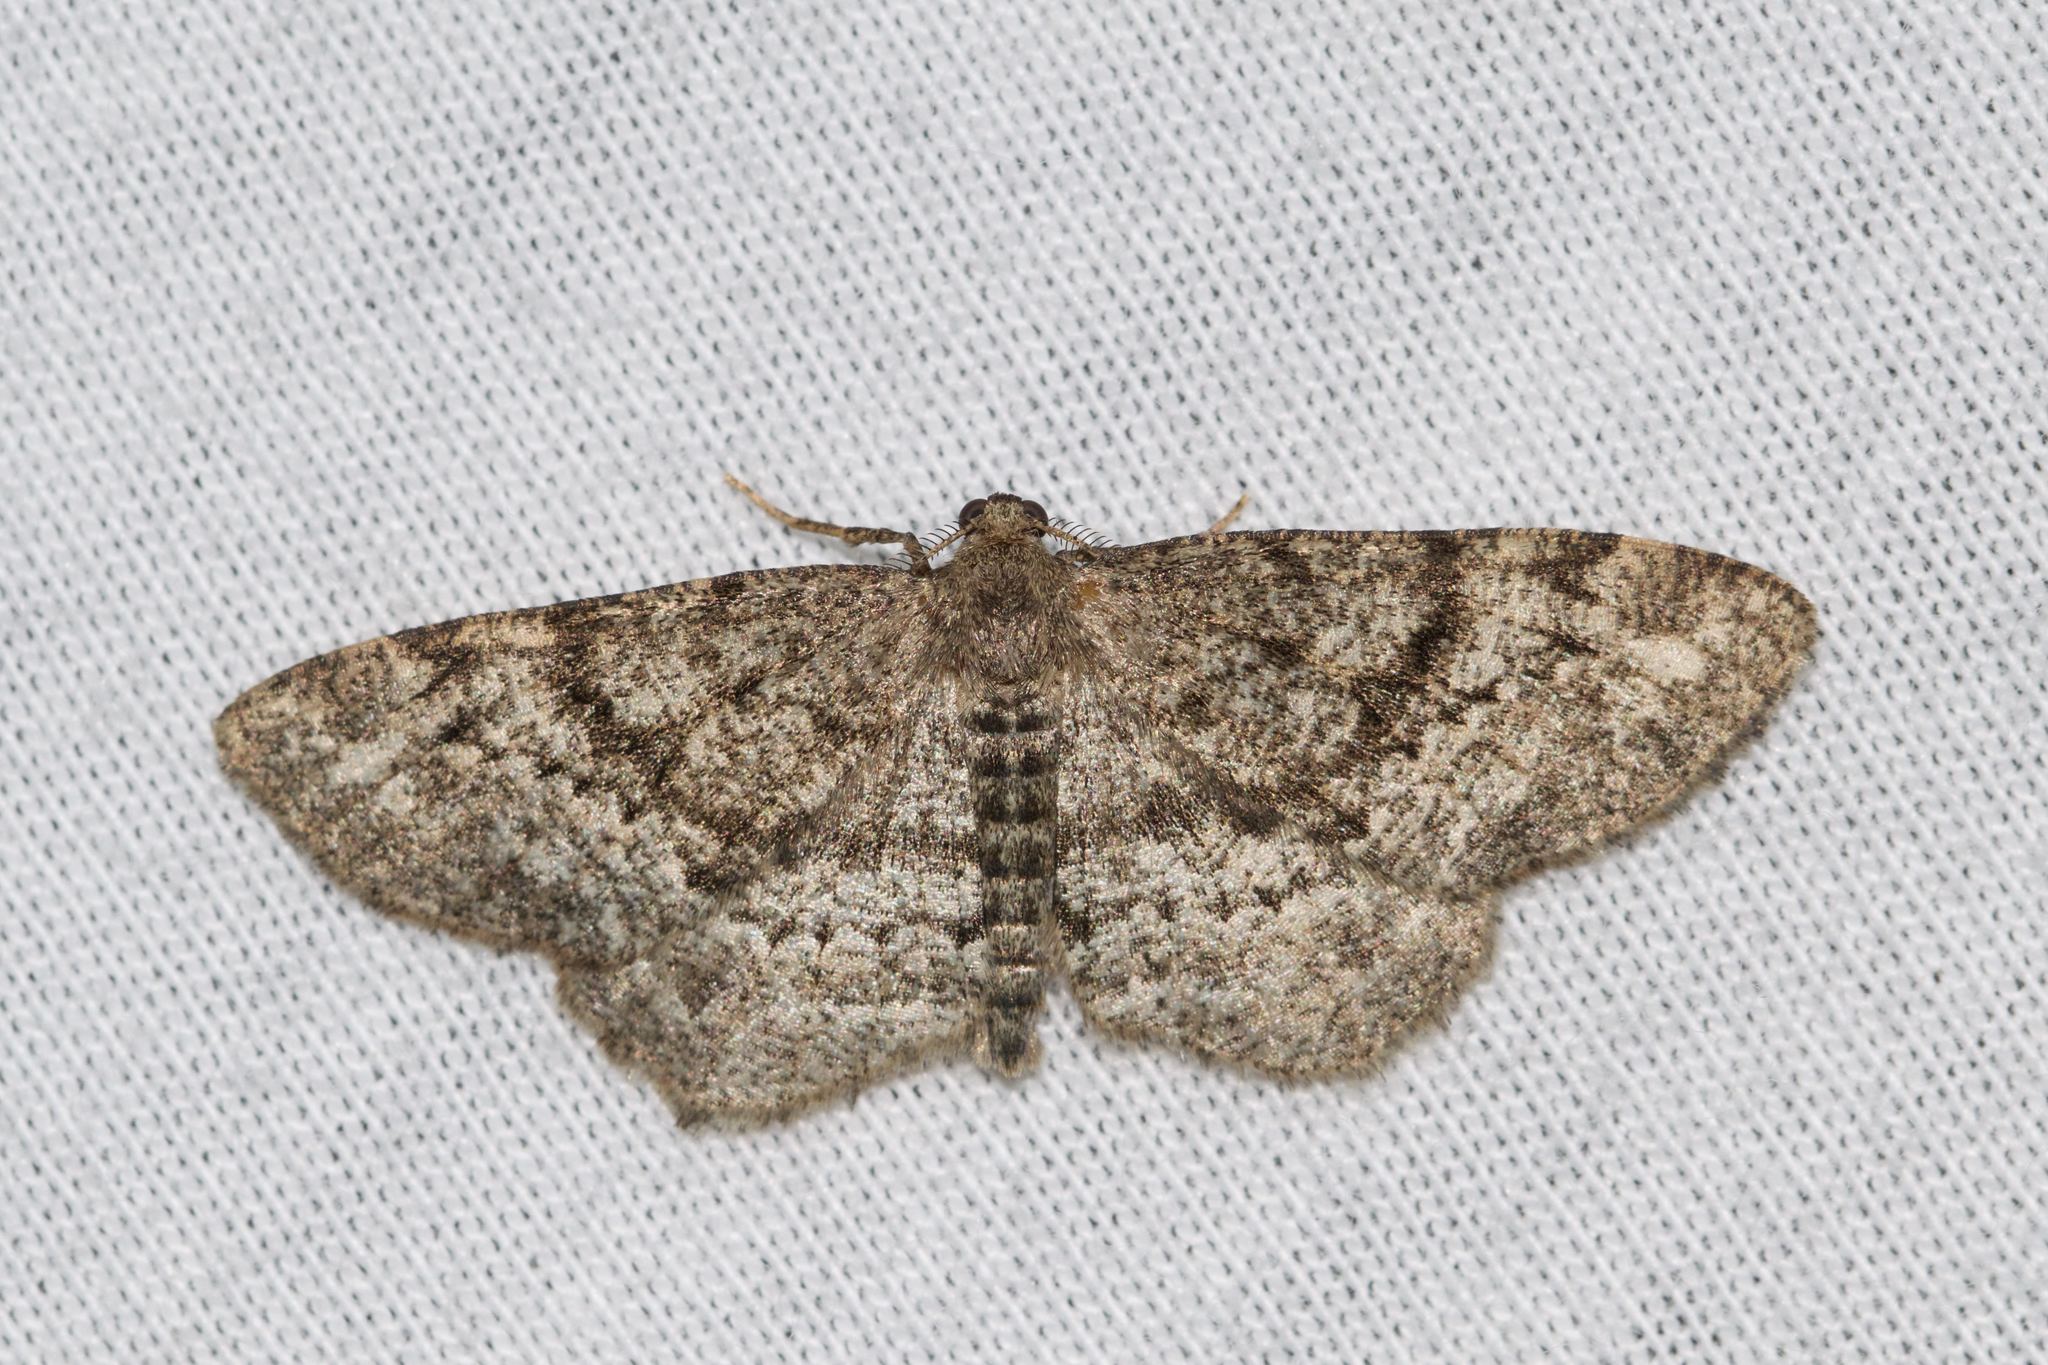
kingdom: Animalia
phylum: Arthropoda
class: Insecta
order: Lepidoptera
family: Geometridae
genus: Hypagyrtis
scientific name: Hypagyrtis piniata
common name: Pine measuringworm
